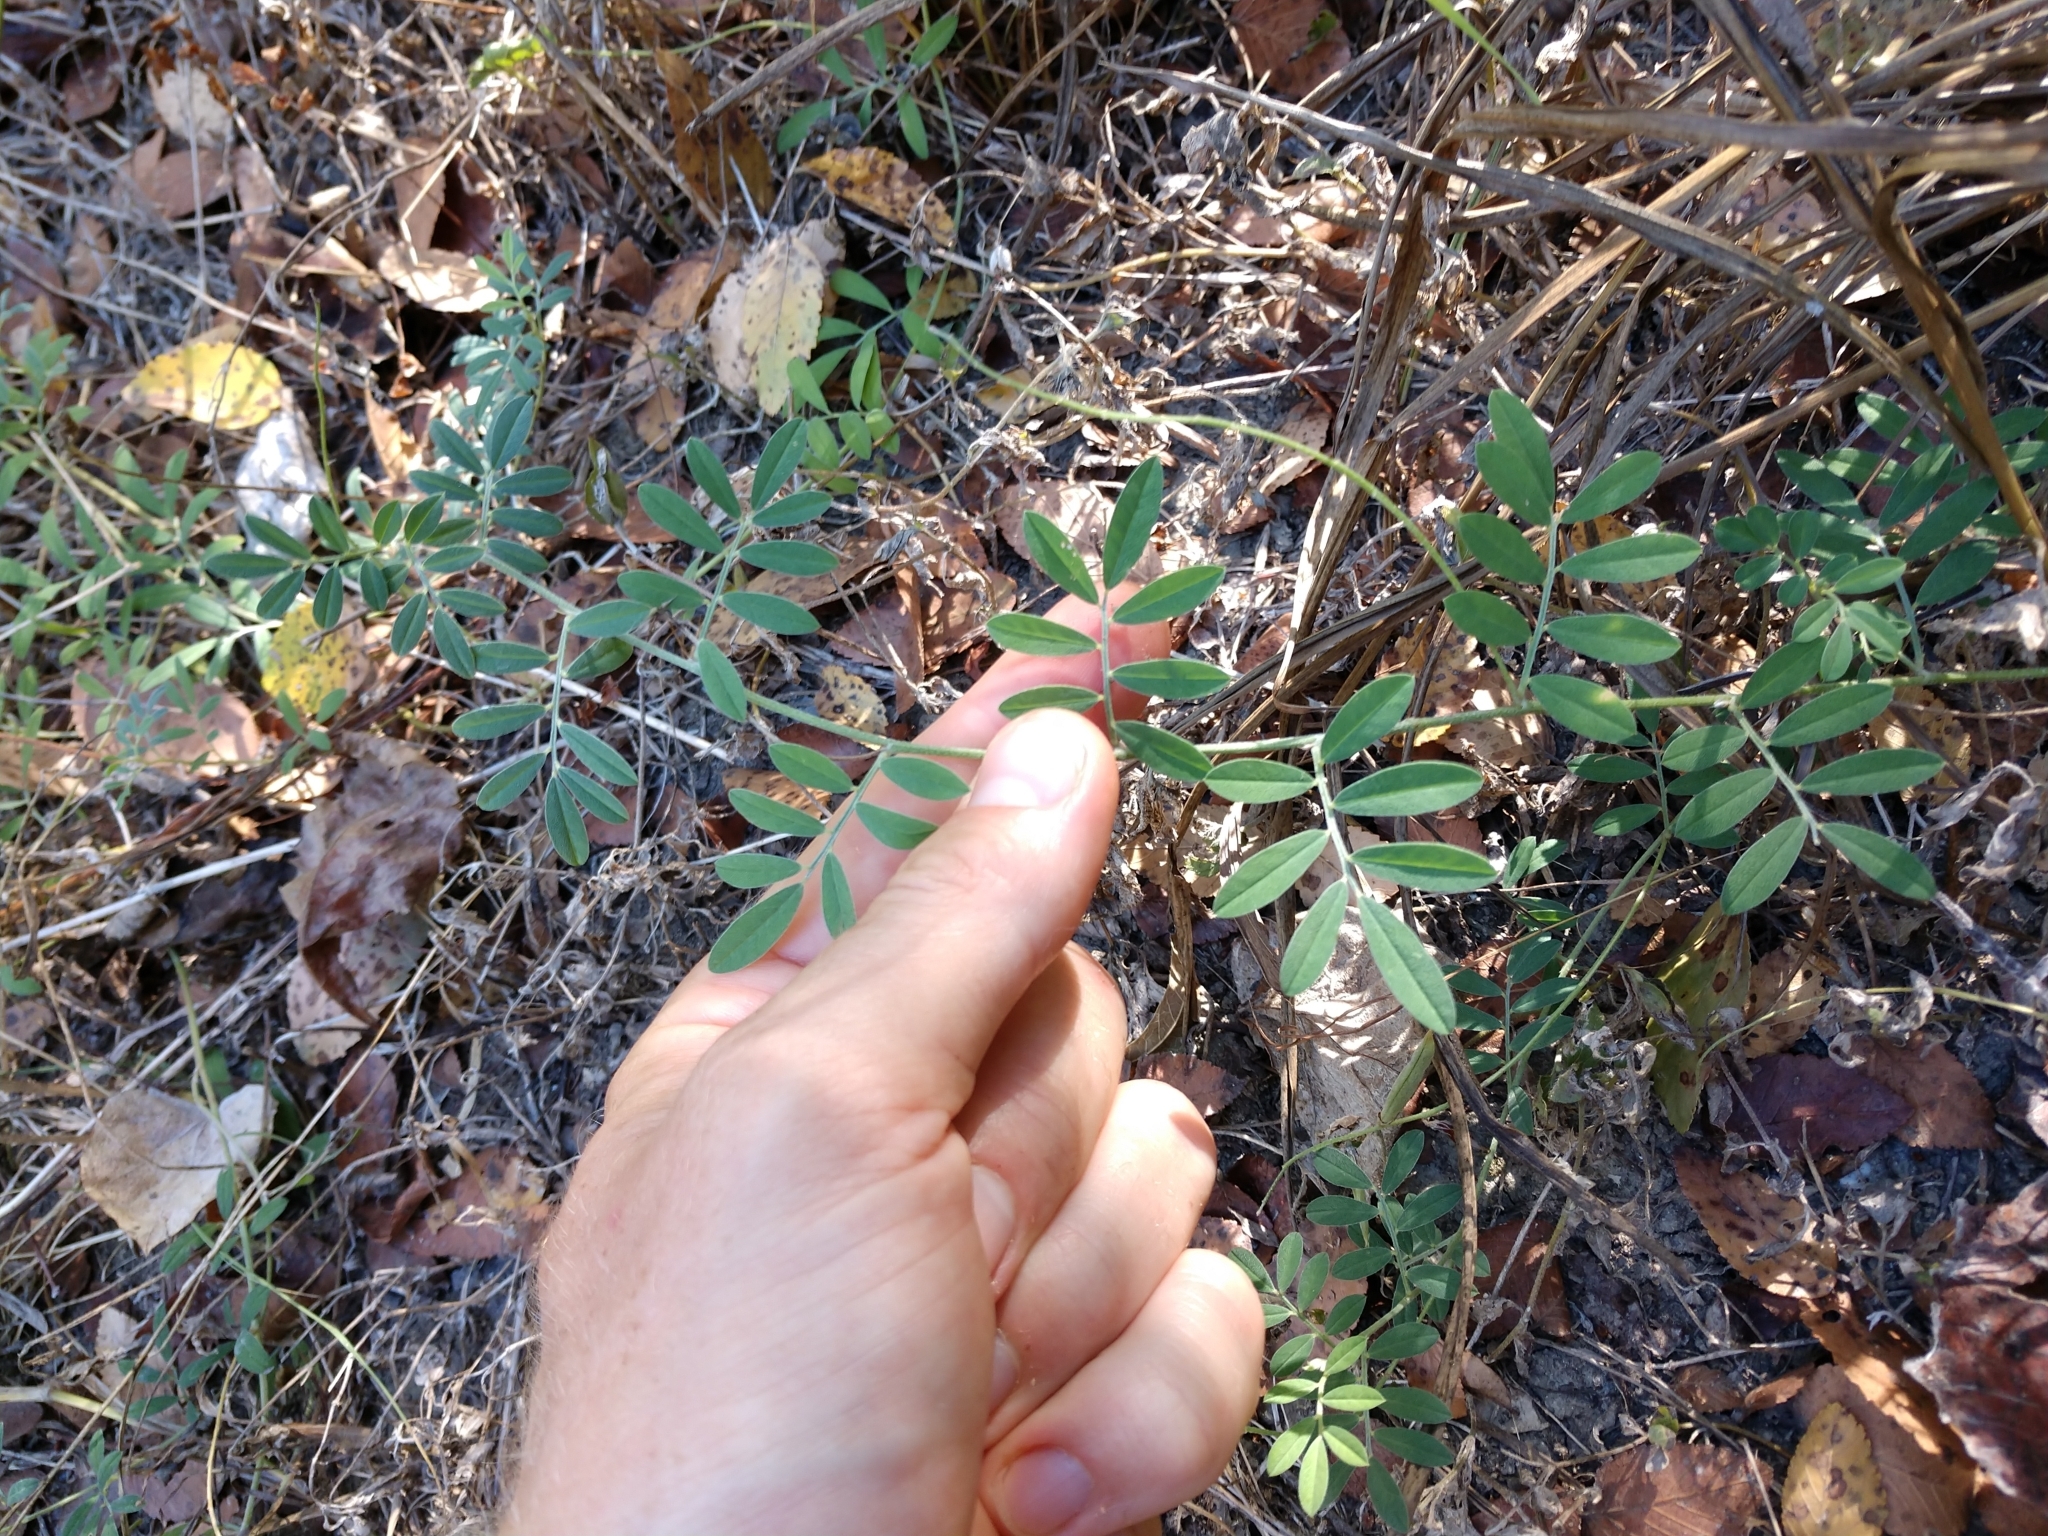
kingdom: Plantae
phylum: Tracheophyta
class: Magnoliopsida
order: Fabales
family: Fabaceae
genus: Indigofera
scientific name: Indigofera miniata
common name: Coast indigo
